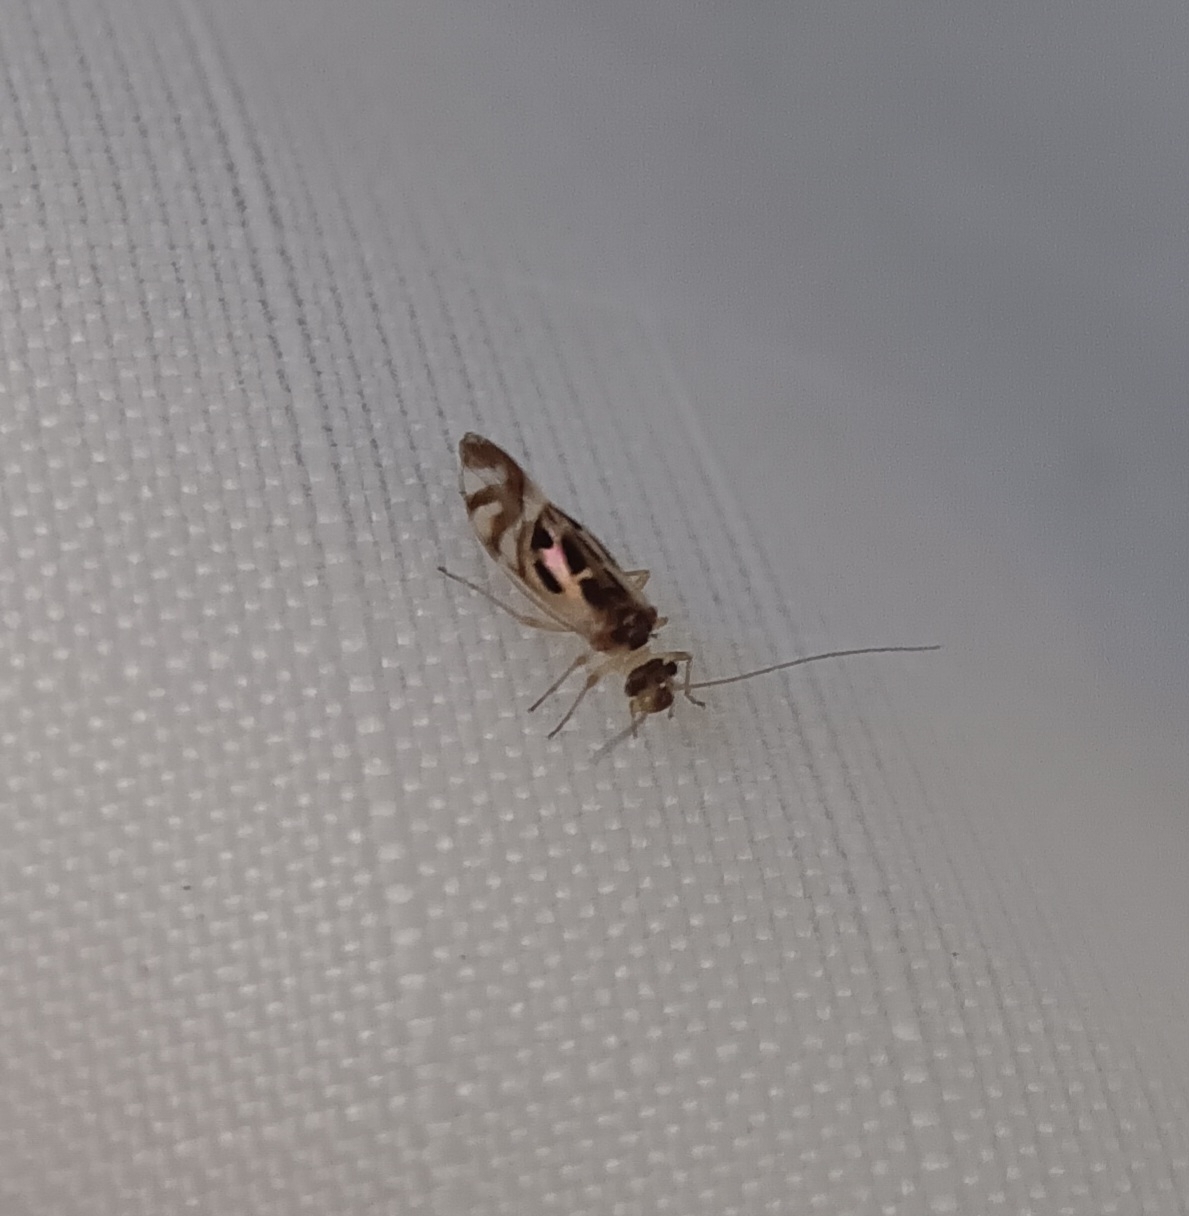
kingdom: Animalia
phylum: Arthropoda
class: Insecta
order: Psocodea
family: Stenopsocidae
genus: Graphopsocus
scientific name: Graphopsocus cruciatus
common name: Lizard bark louse
